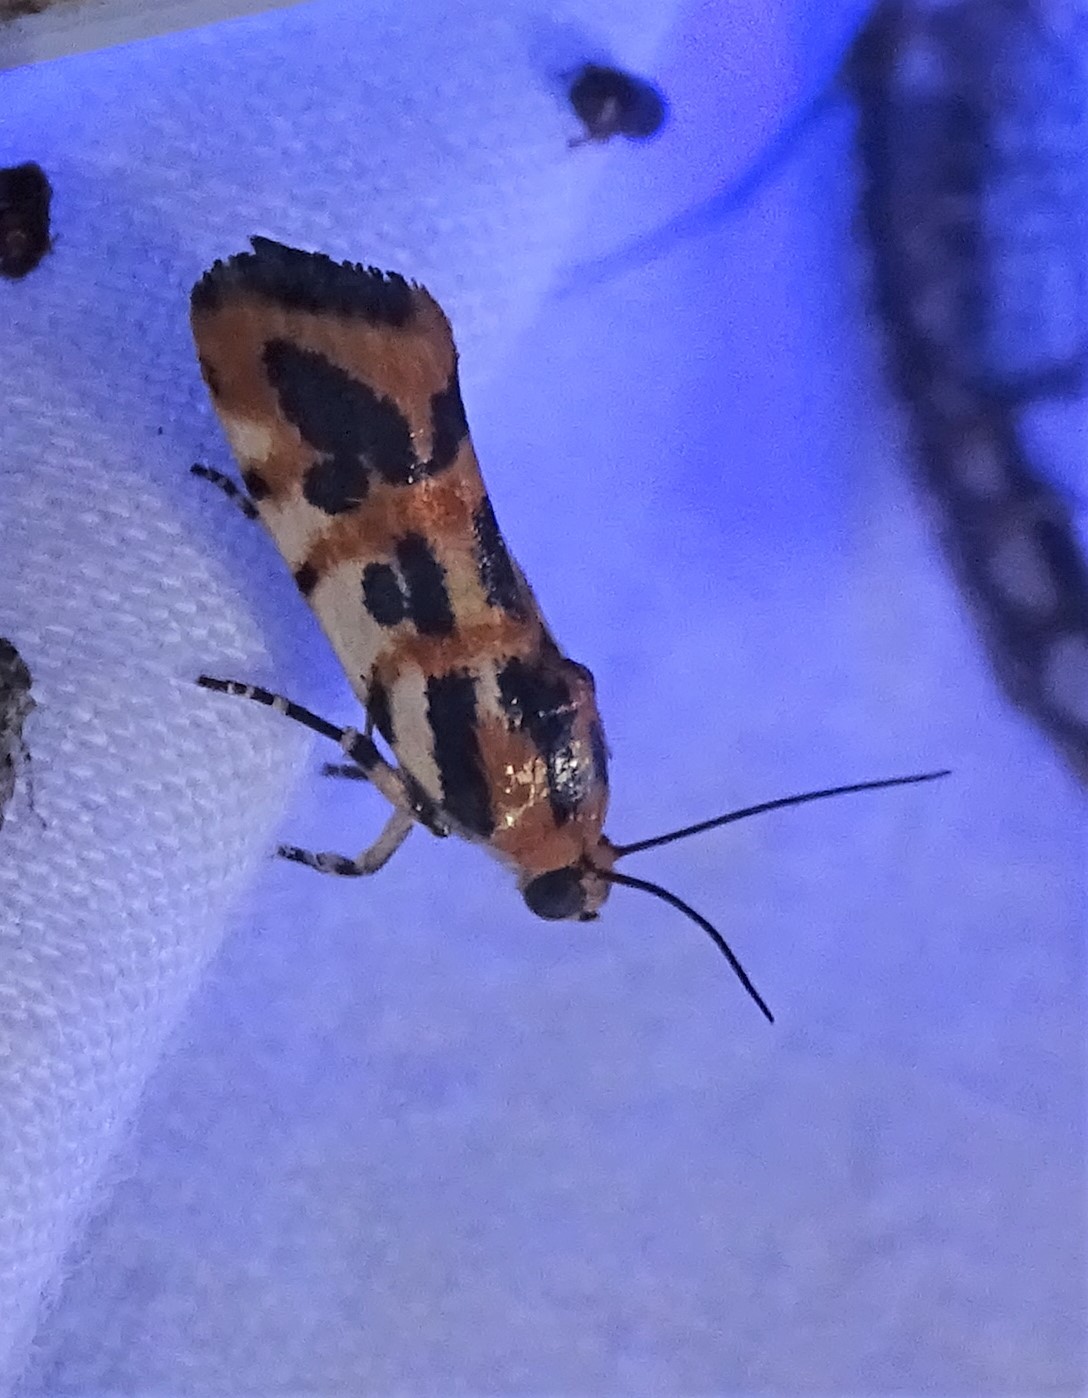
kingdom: Animalia
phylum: Arthropoda
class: Insecta
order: Lepidoptera
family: Noctuidae
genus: Acontia
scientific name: Acontia leo
